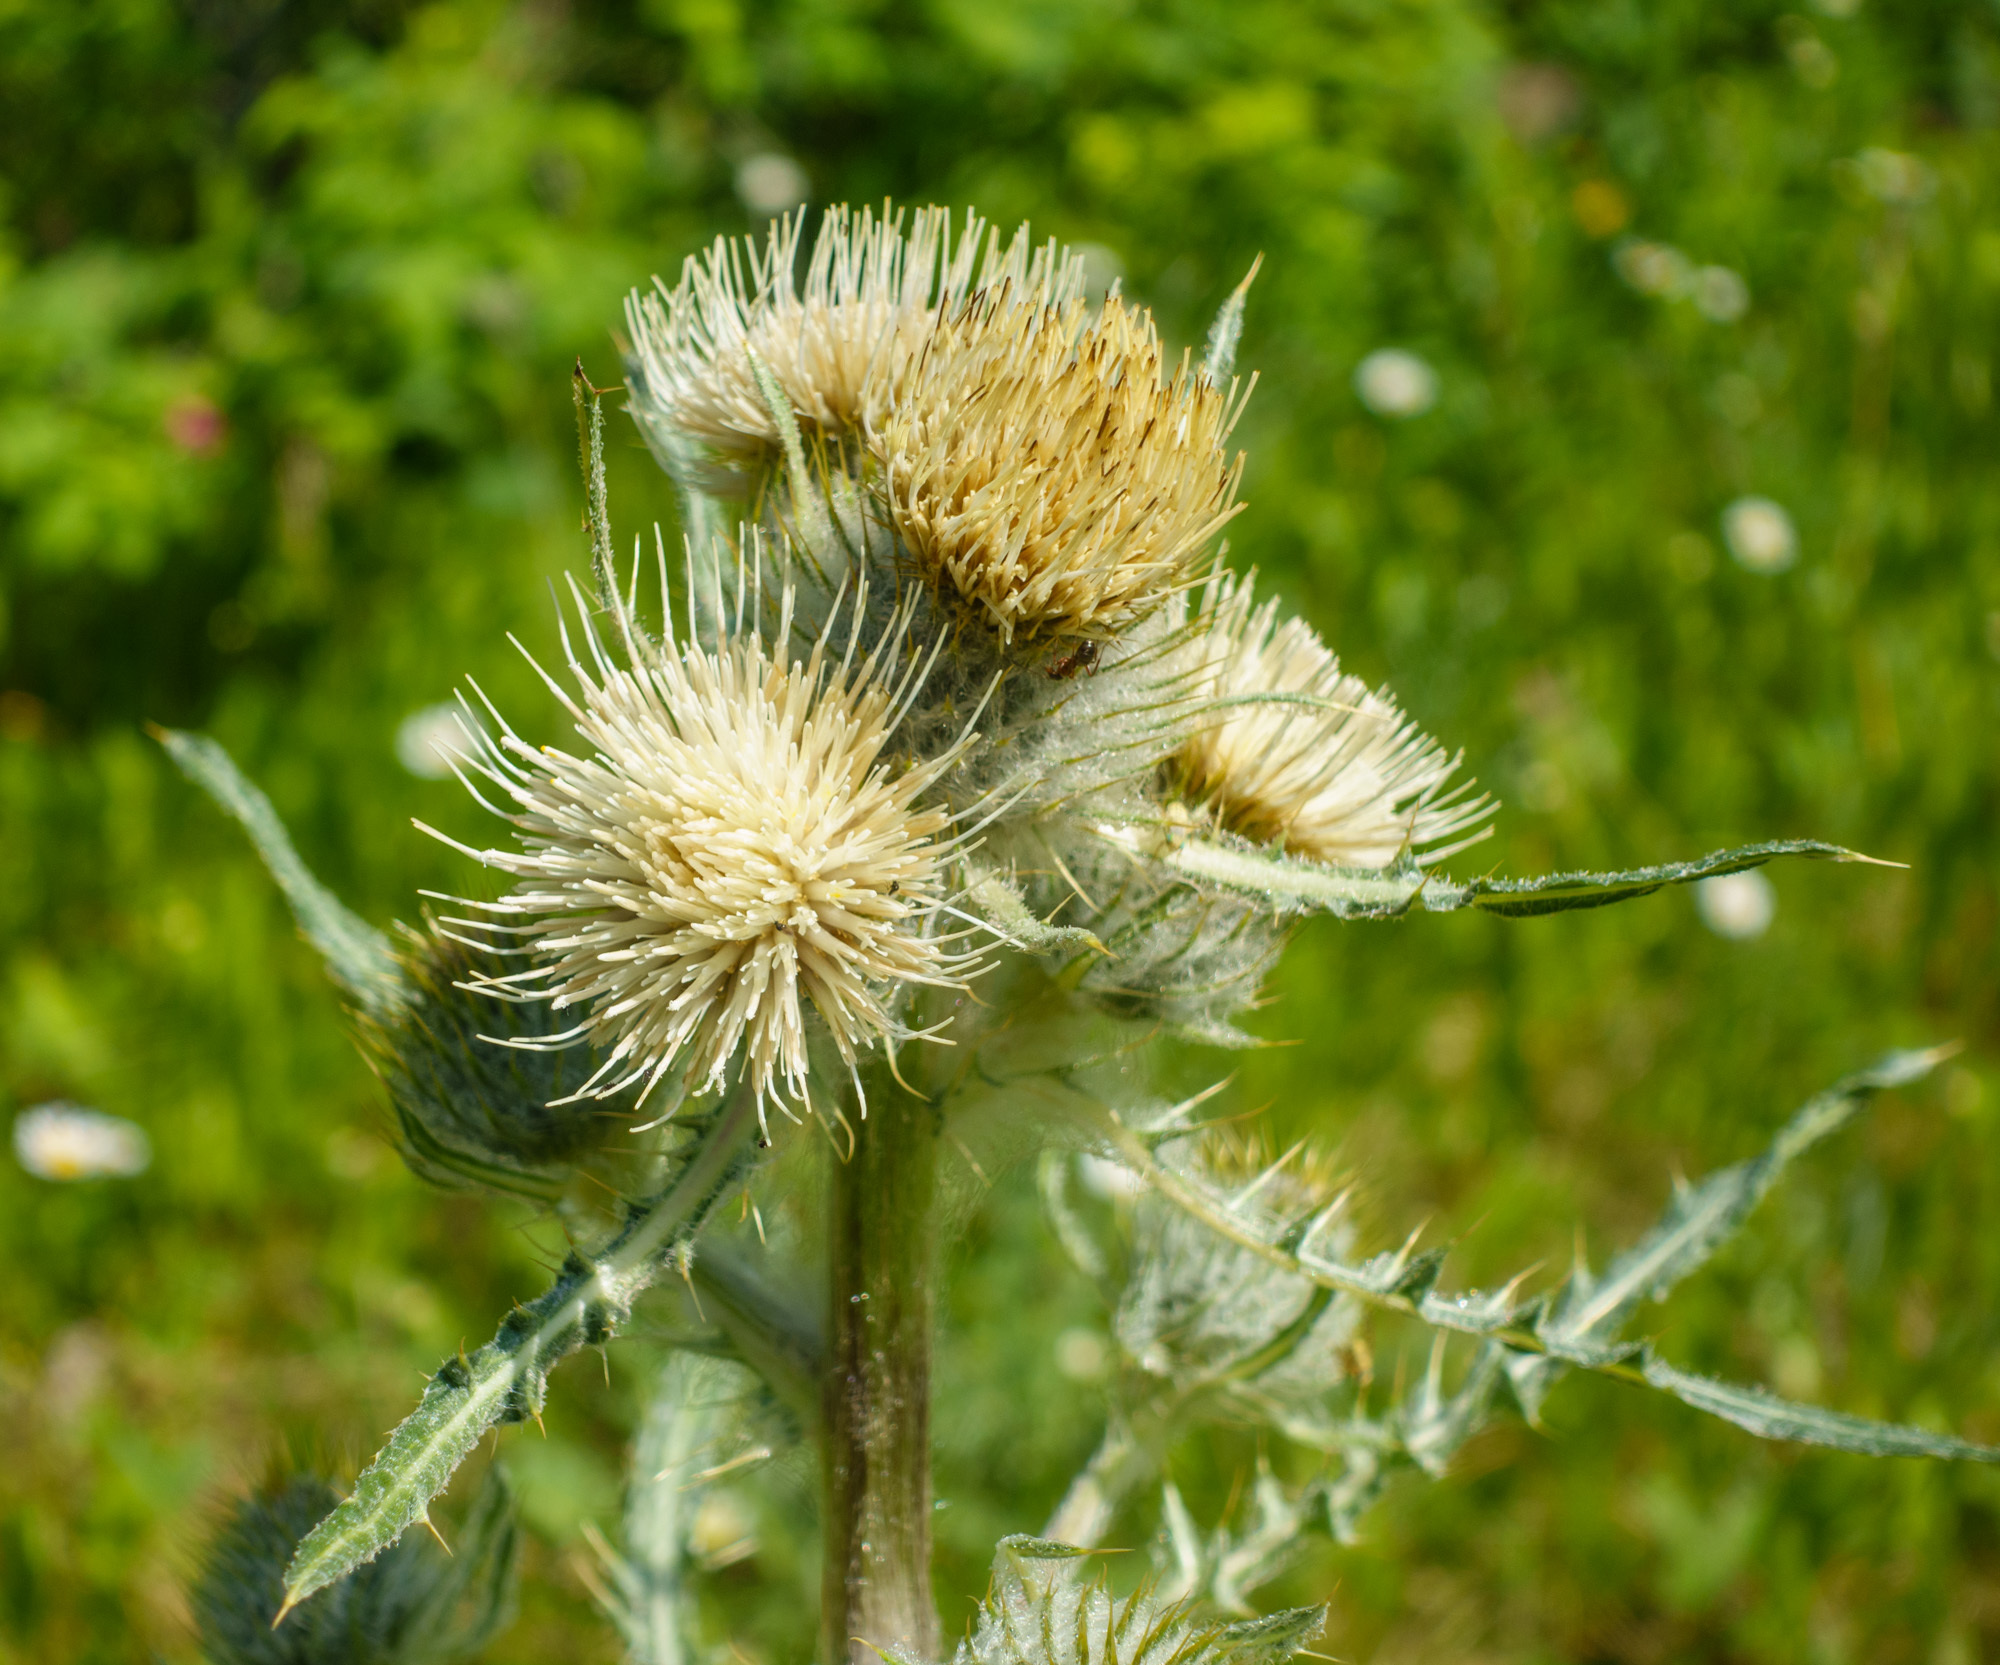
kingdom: Plantae
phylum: Tracheophyta
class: Magnoliopsida
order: Asterales
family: Asteraceae
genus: Cirsium
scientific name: Cirsium hookerianum
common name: Hooker's thistle
